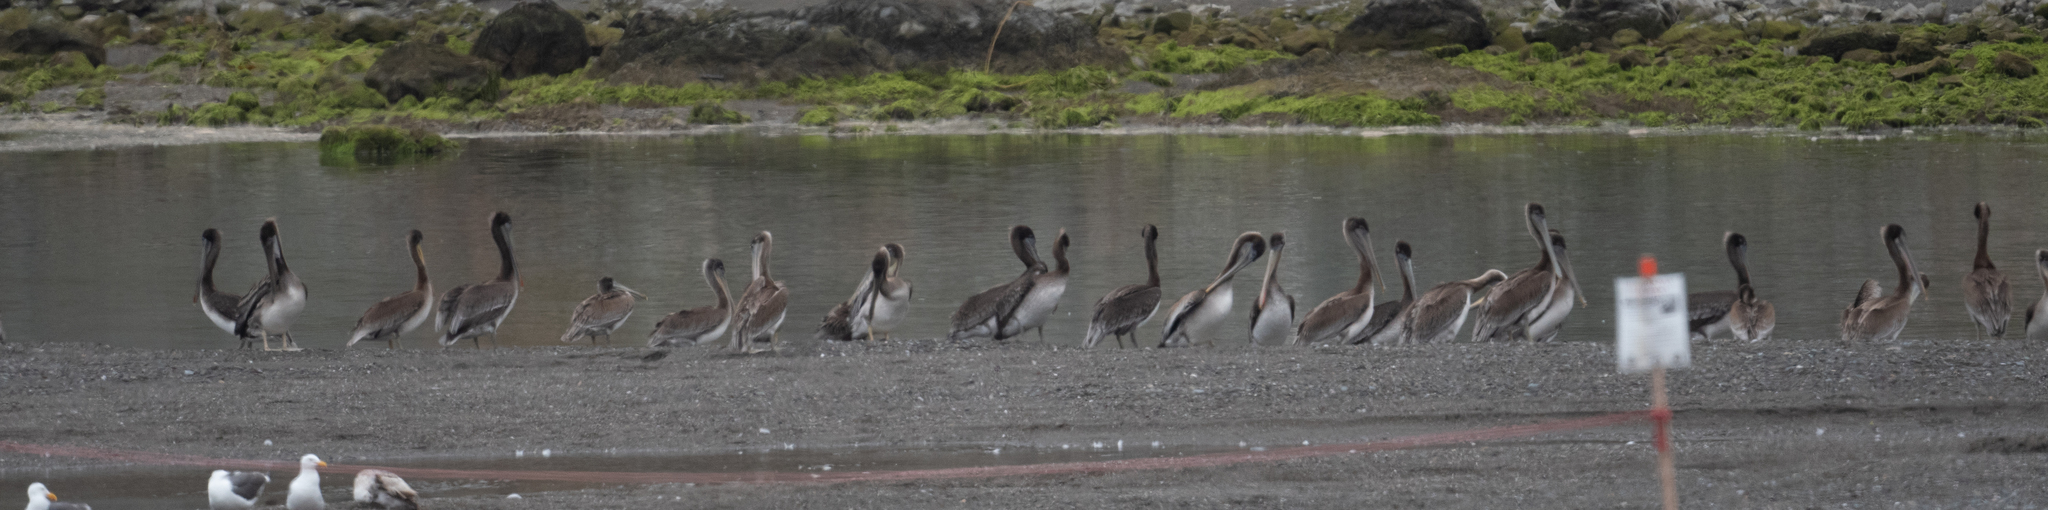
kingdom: Animalia
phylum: Chordata
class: Aves
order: Pelecaniformes
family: Pelecanidae
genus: Pelecanus
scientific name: Pelecanus occidentalis
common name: Brown pelican
